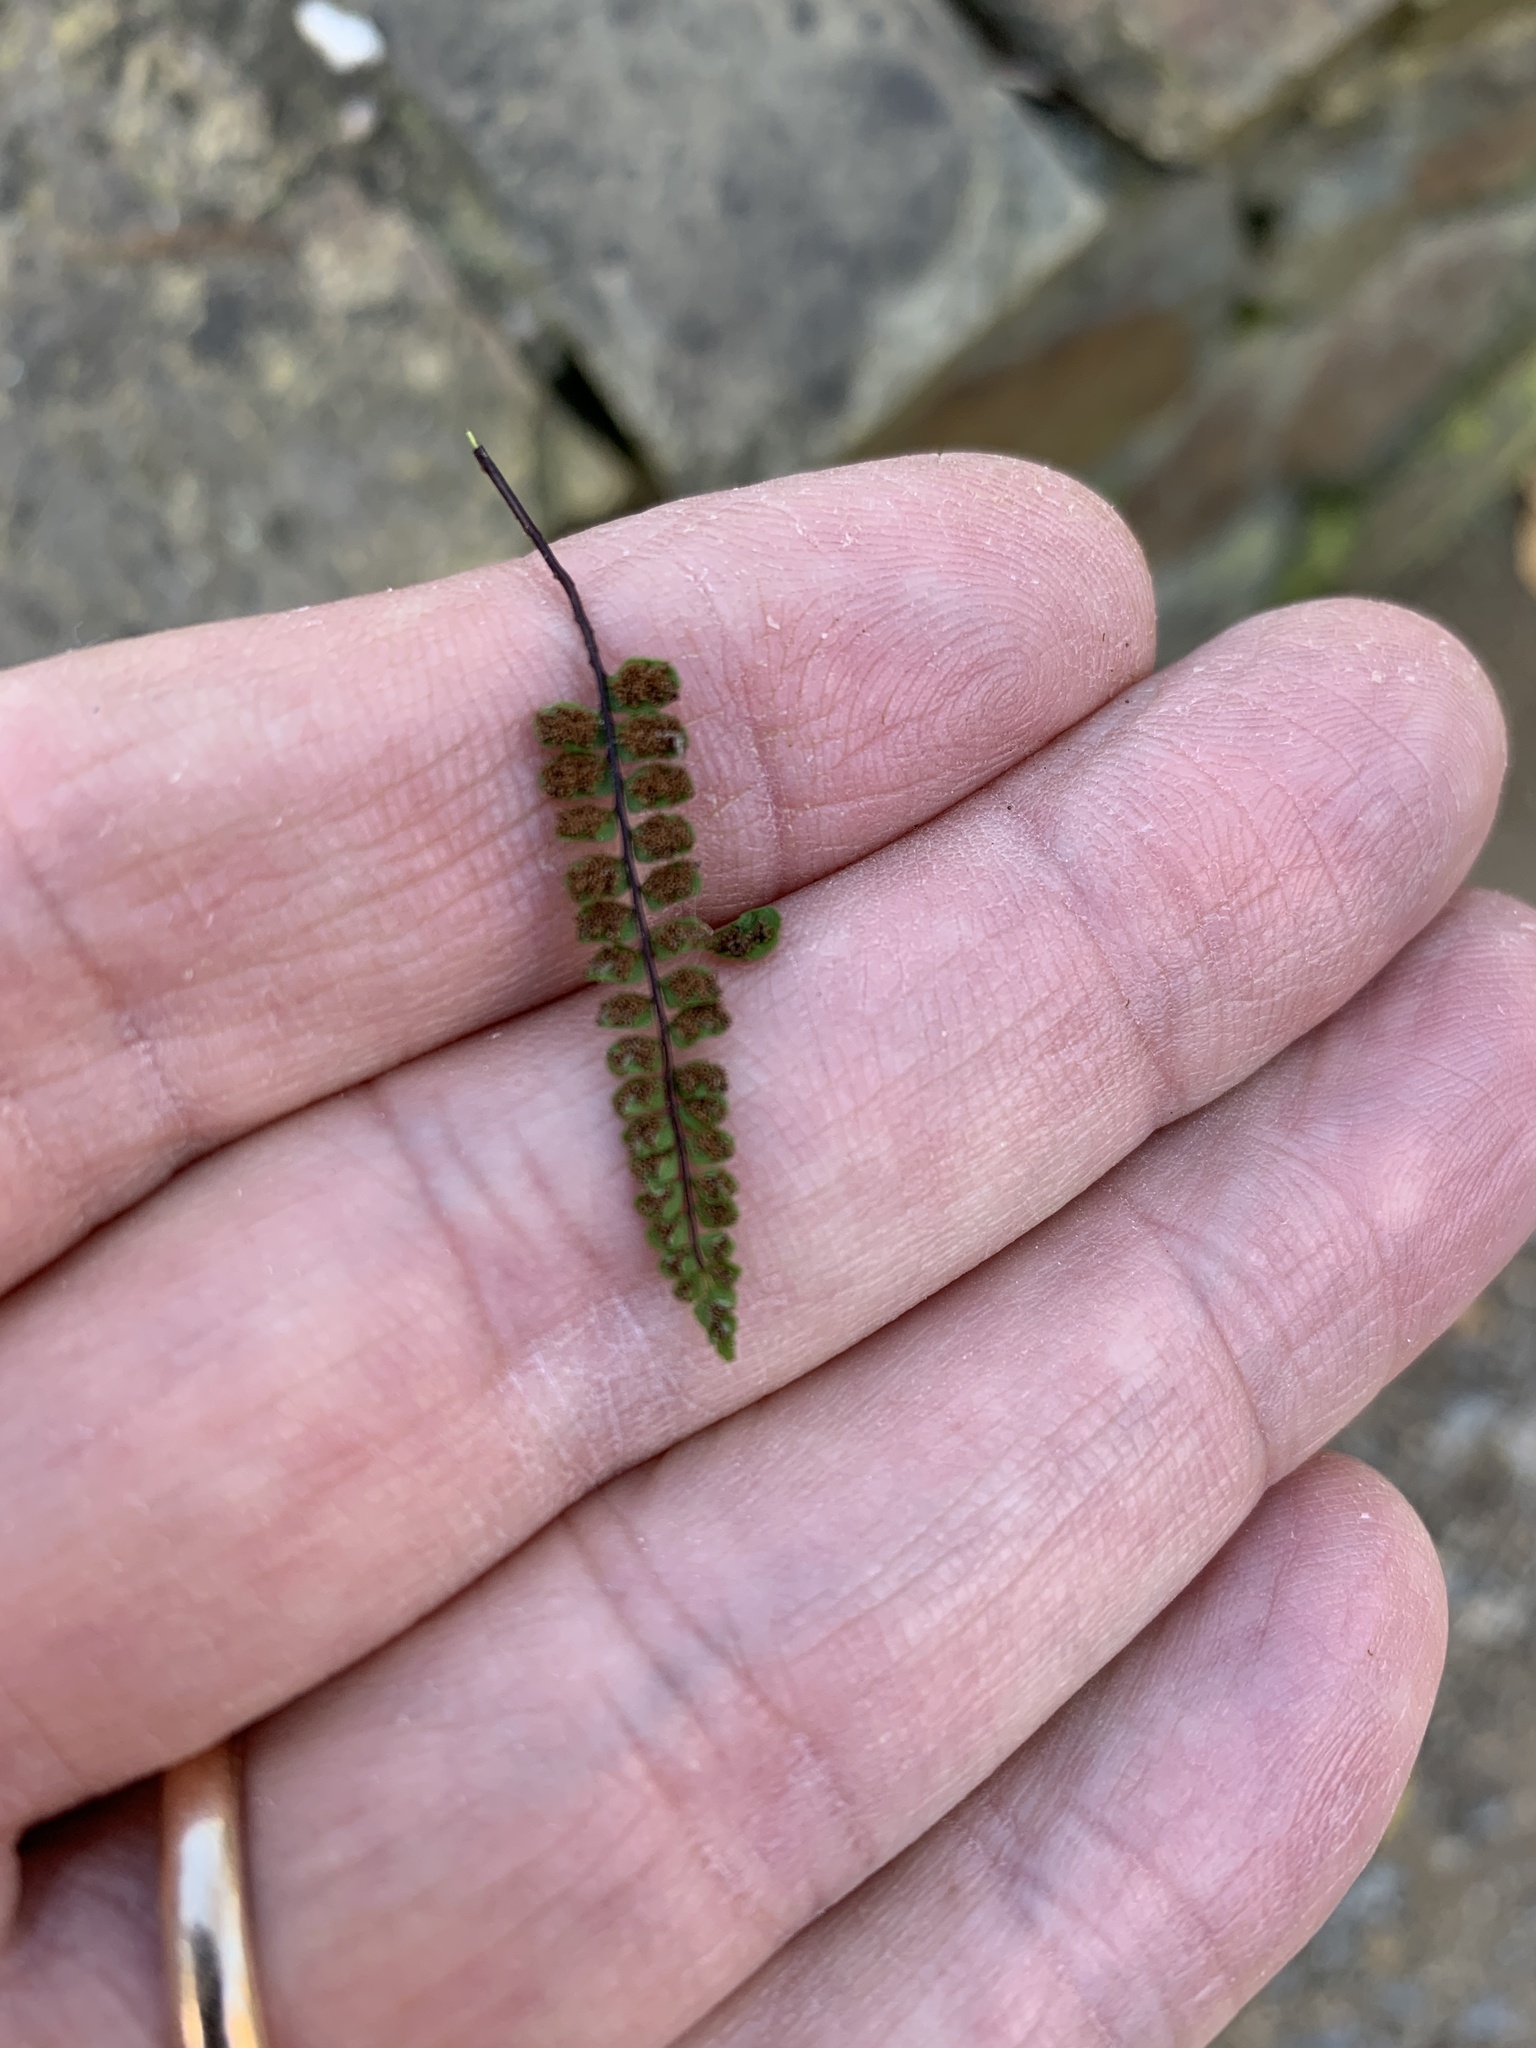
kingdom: Plantae
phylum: Tracheophyta
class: Polypodiopsida
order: Polypodiales
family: Aspleniaceae
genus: Asplenium
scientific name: Asplenium trichomanes
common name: Maidenhair spleenwort
